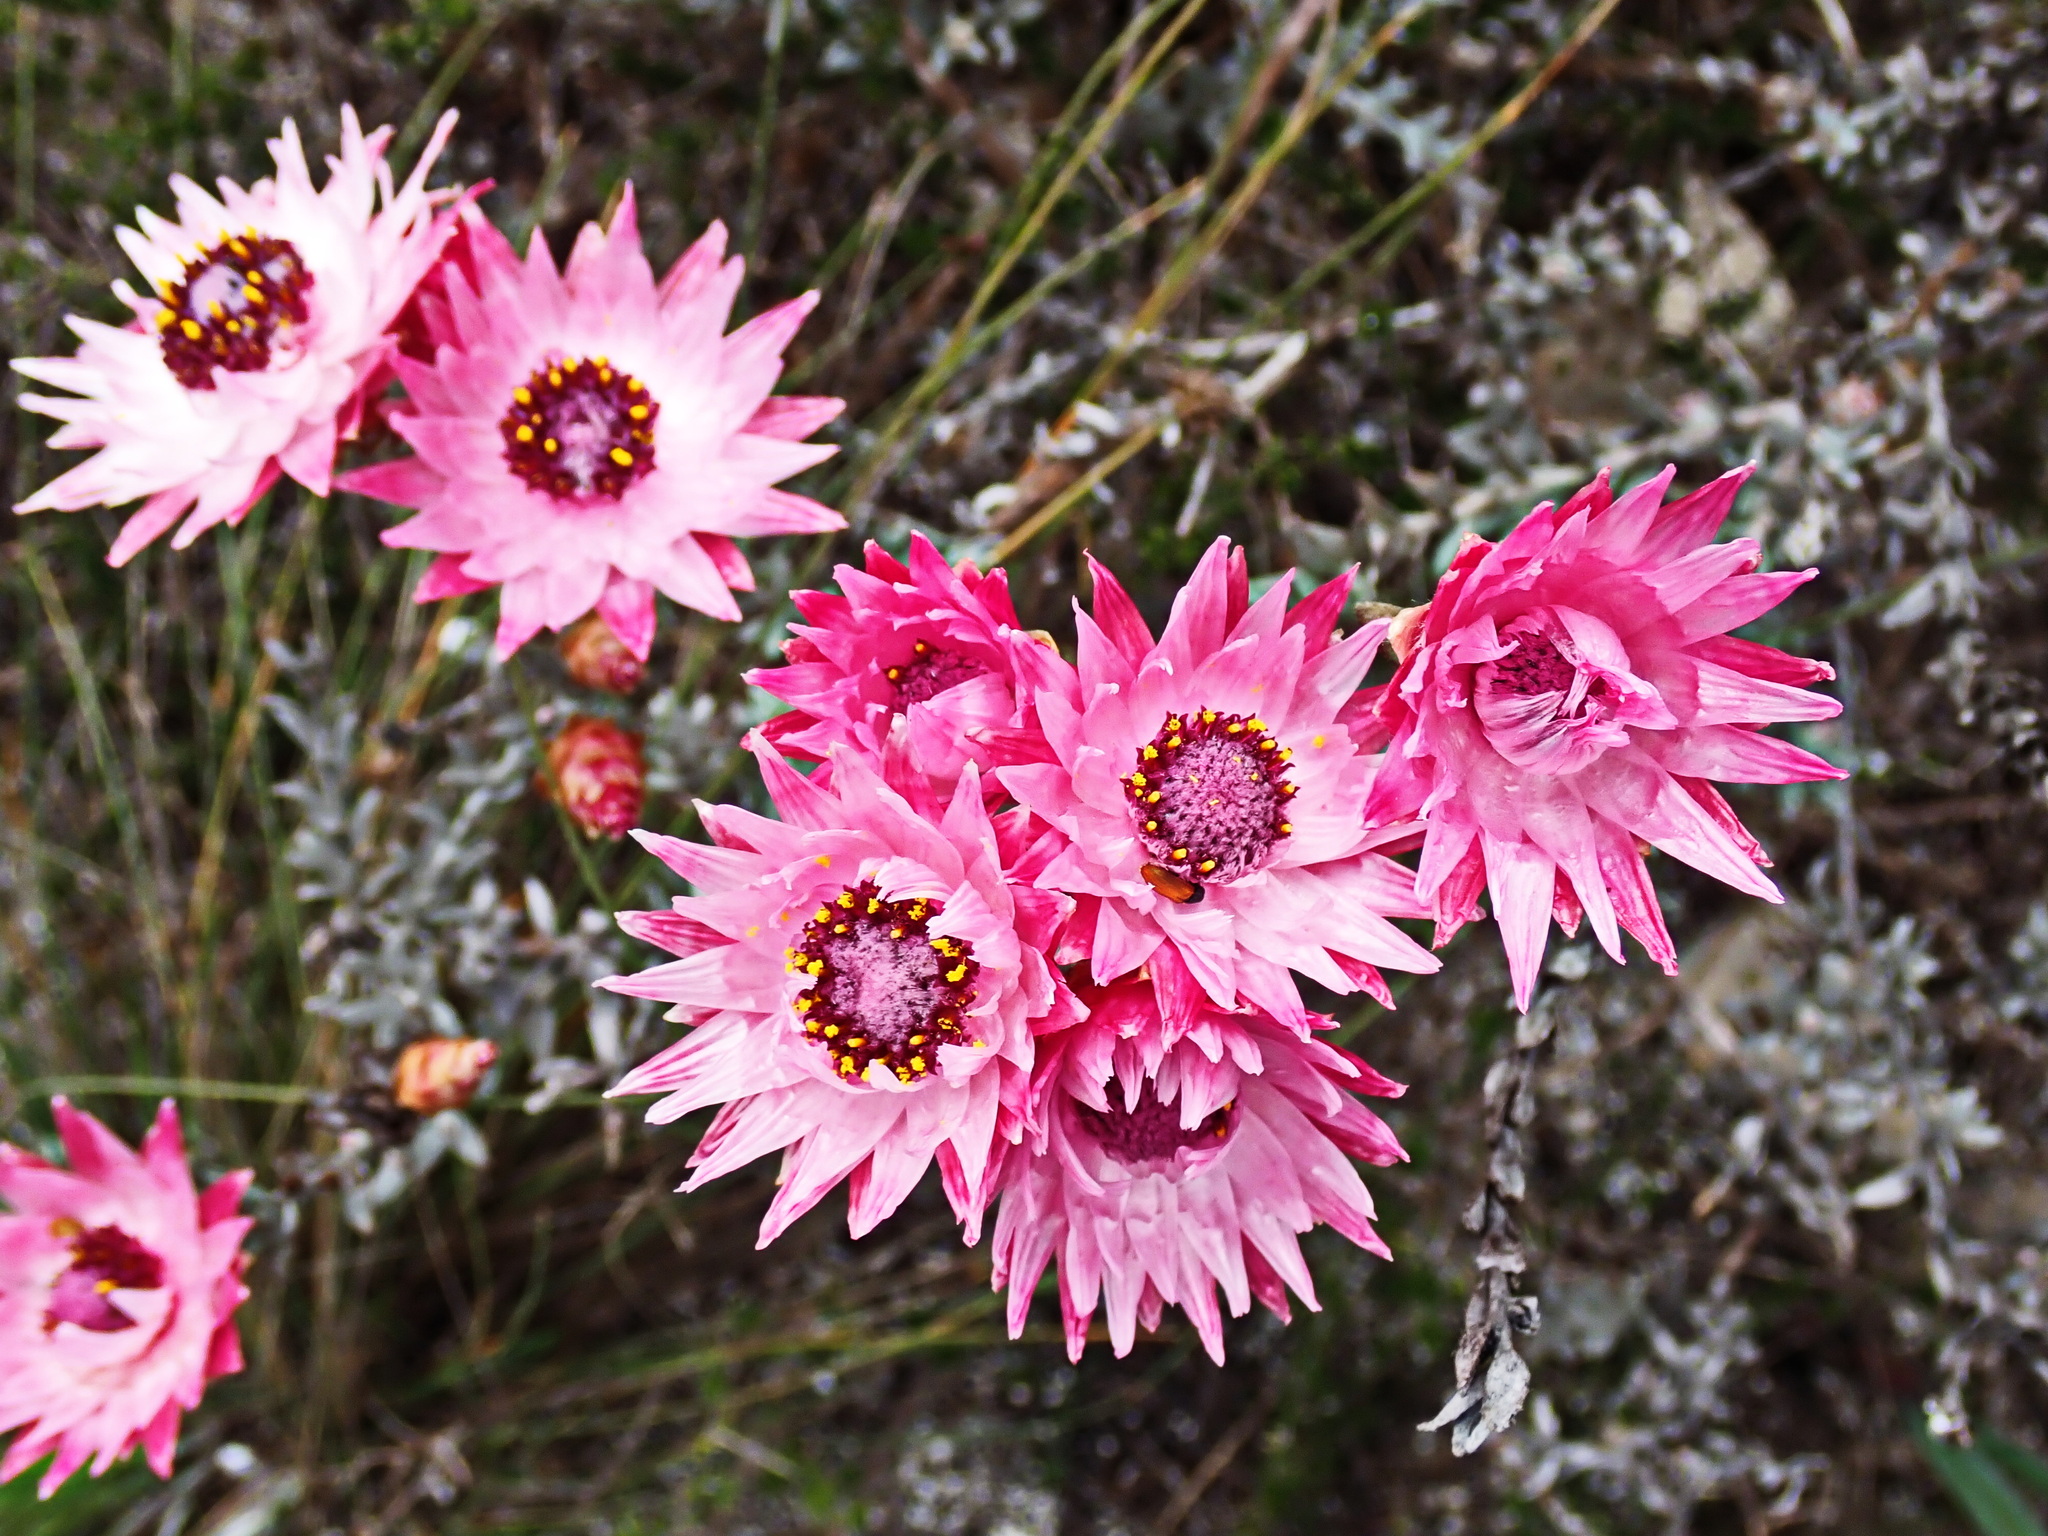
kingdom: Plantae
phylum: Tracheophyta
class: Magnoliopsida
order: Asterales
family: Asteraceae
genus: Syncarpha
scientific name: Syncarpha canescens
